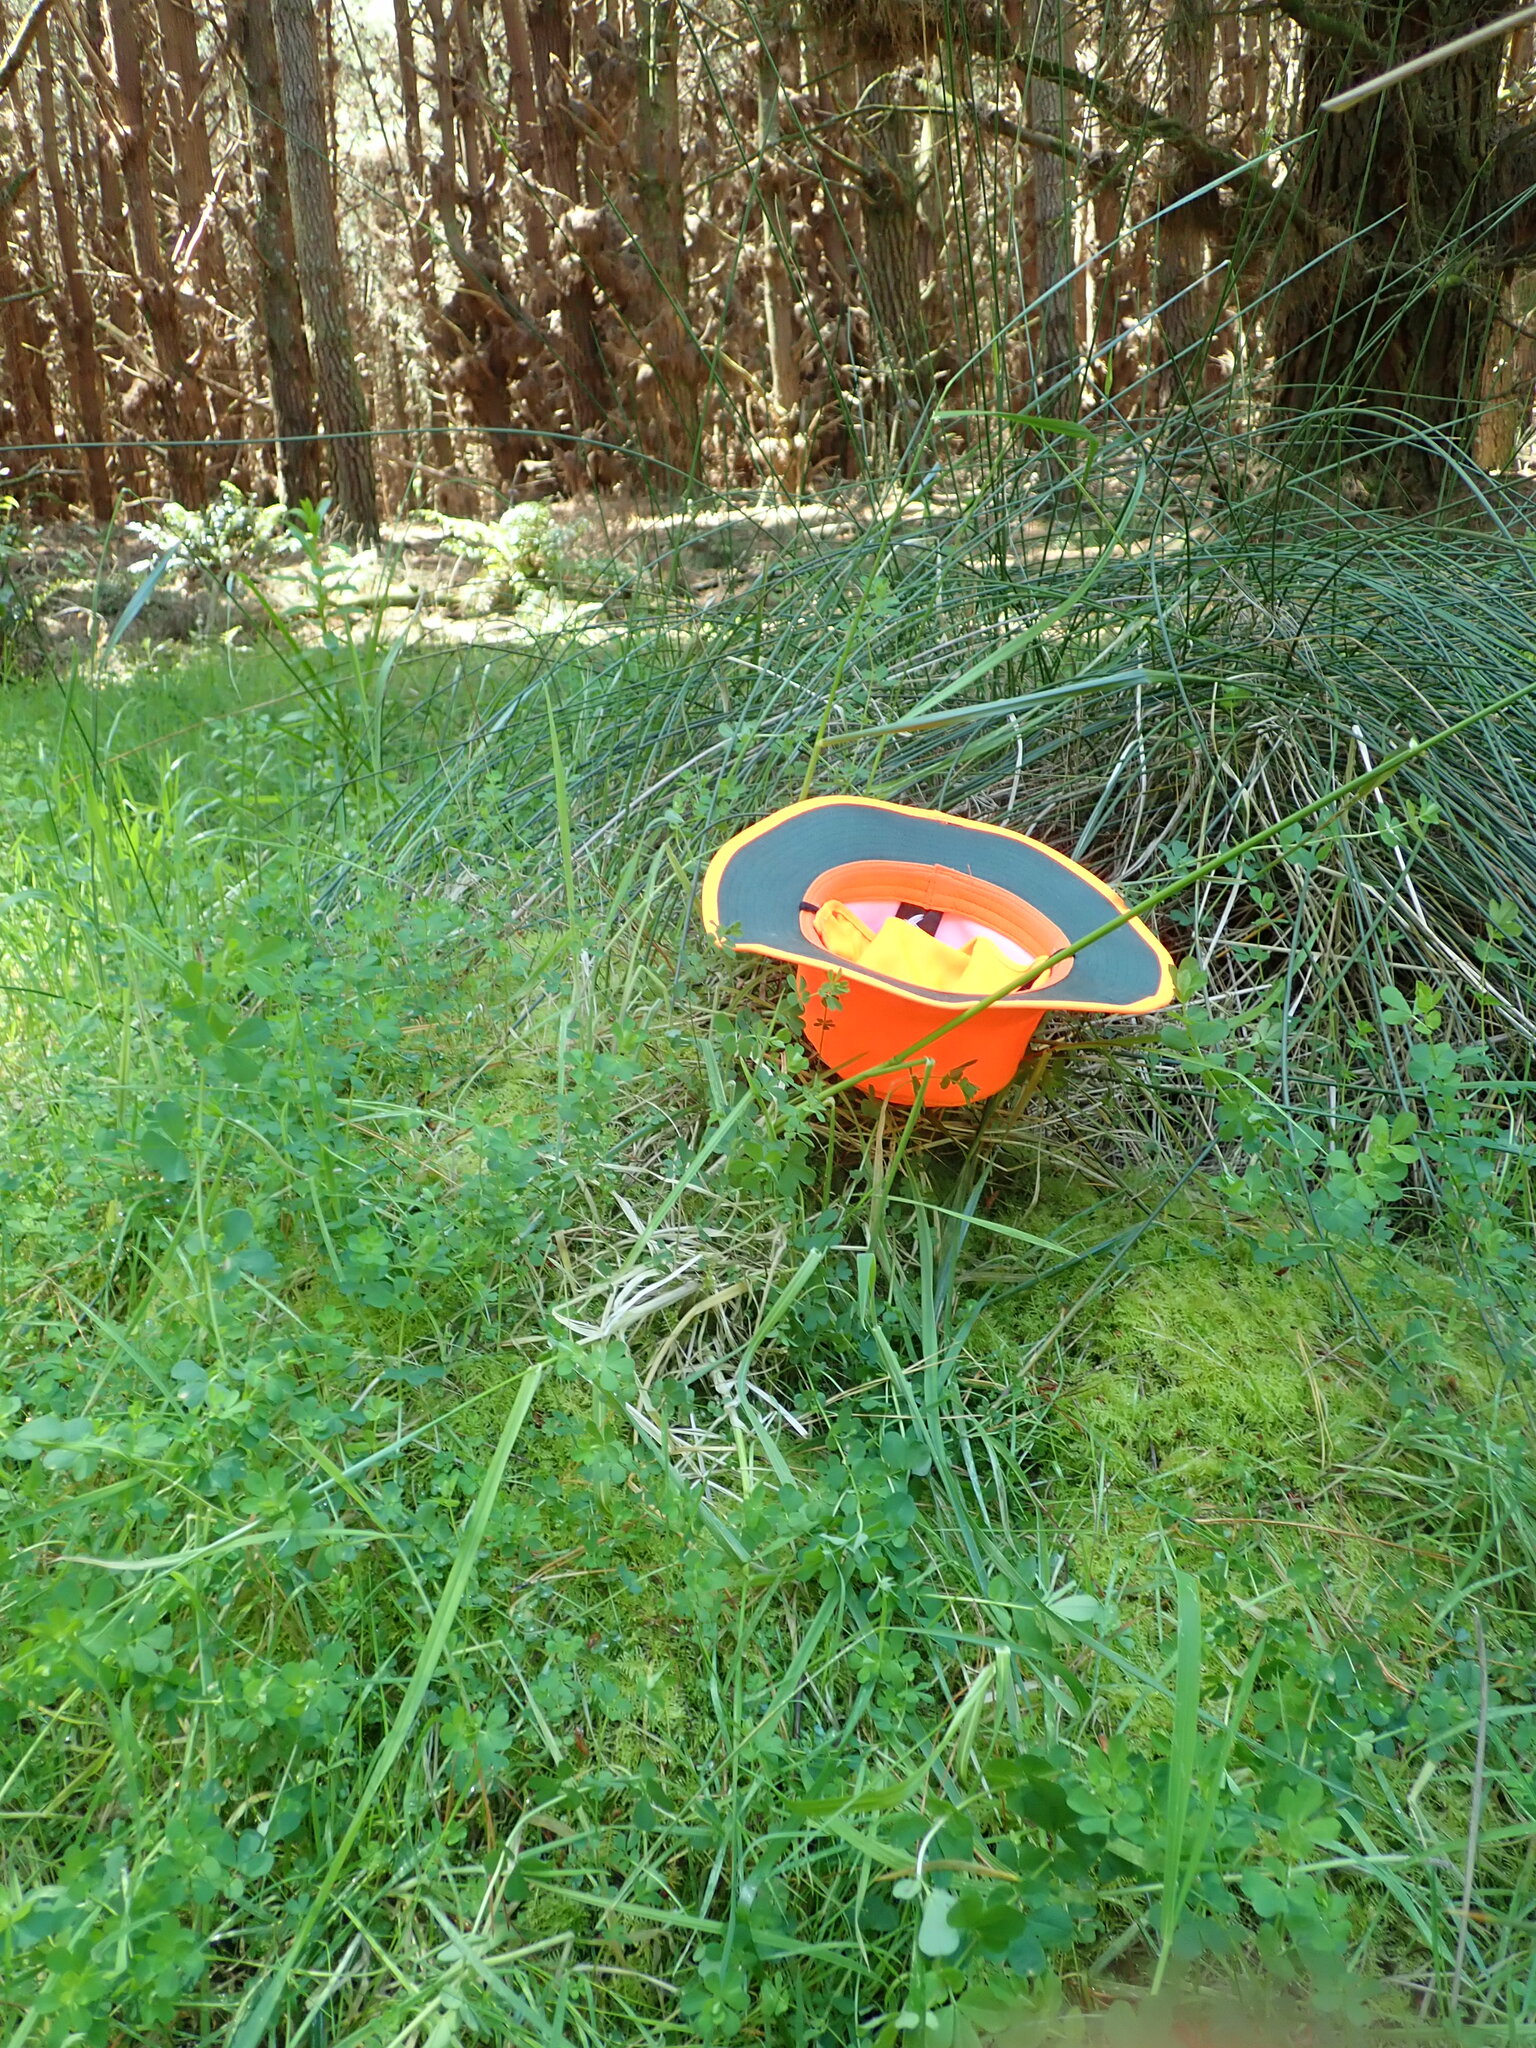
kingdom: Plantae
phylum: Bryophyta
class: Bryopsida
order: Hypnales
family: Brachytheciaceae
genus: Kindbergia
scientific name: Kindbergia praelonga
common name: Slender beaked moss
